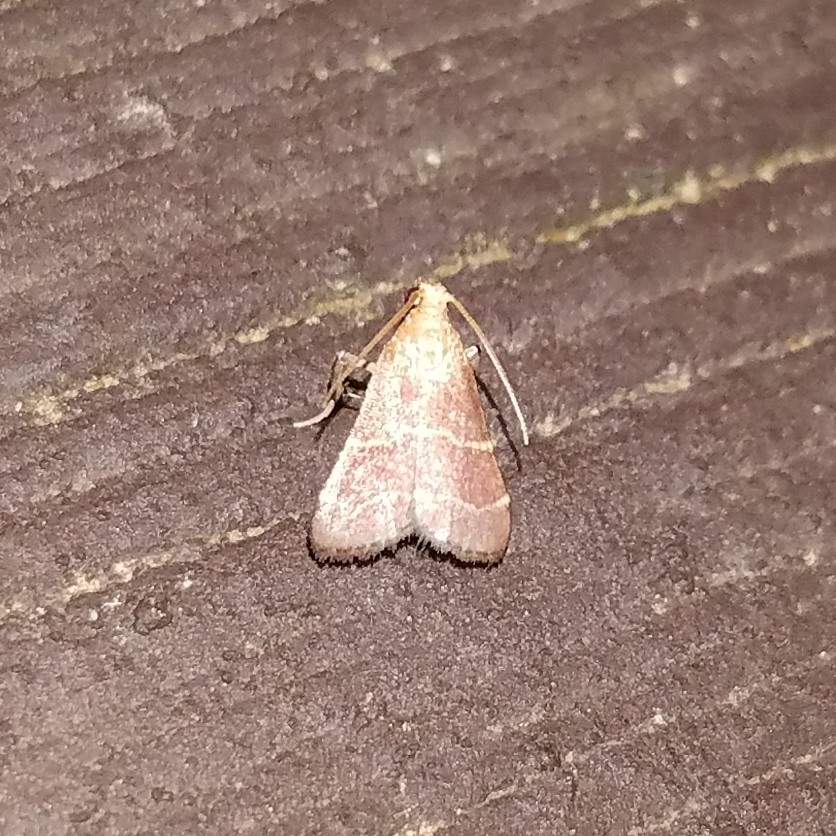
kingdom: Animalia
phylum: Arthropoda
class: Insecta
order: Lepidoptera
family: Pyralidae
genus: Arta
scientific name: Arta statalis
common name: Posturing arta moth
